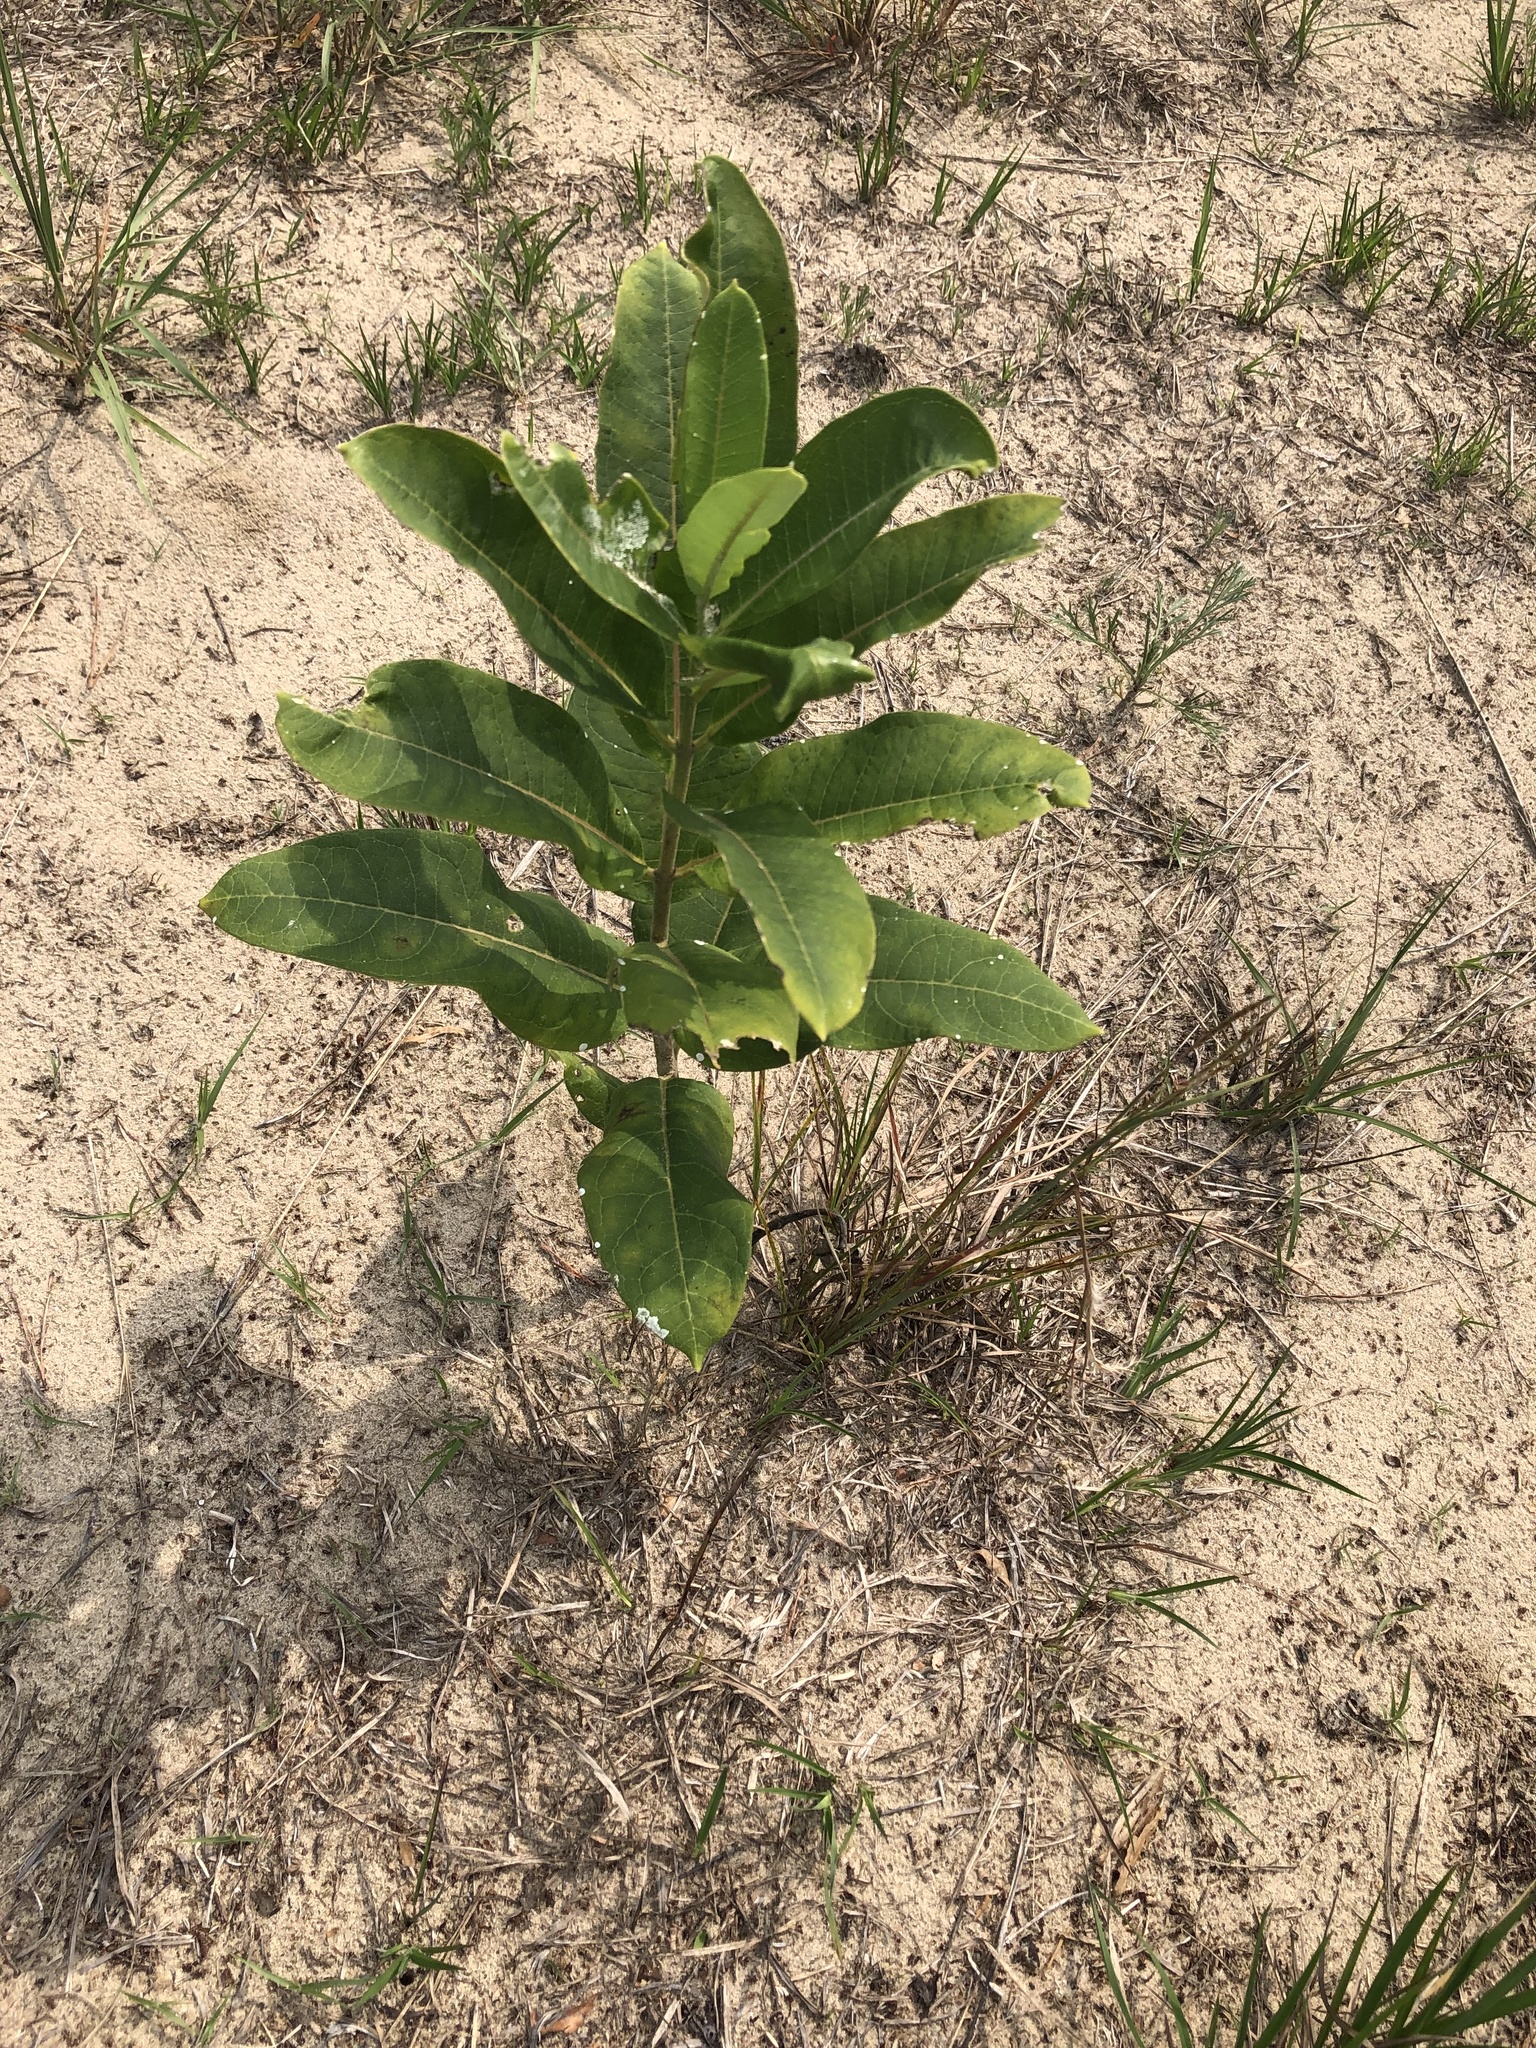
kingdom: Plantae
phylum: Tracheophyta
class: Magnoliopsida
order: Gentianales
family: Apocynaceae
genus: Asclepias
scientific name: Asclepias syriaca
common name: Common milkweed
